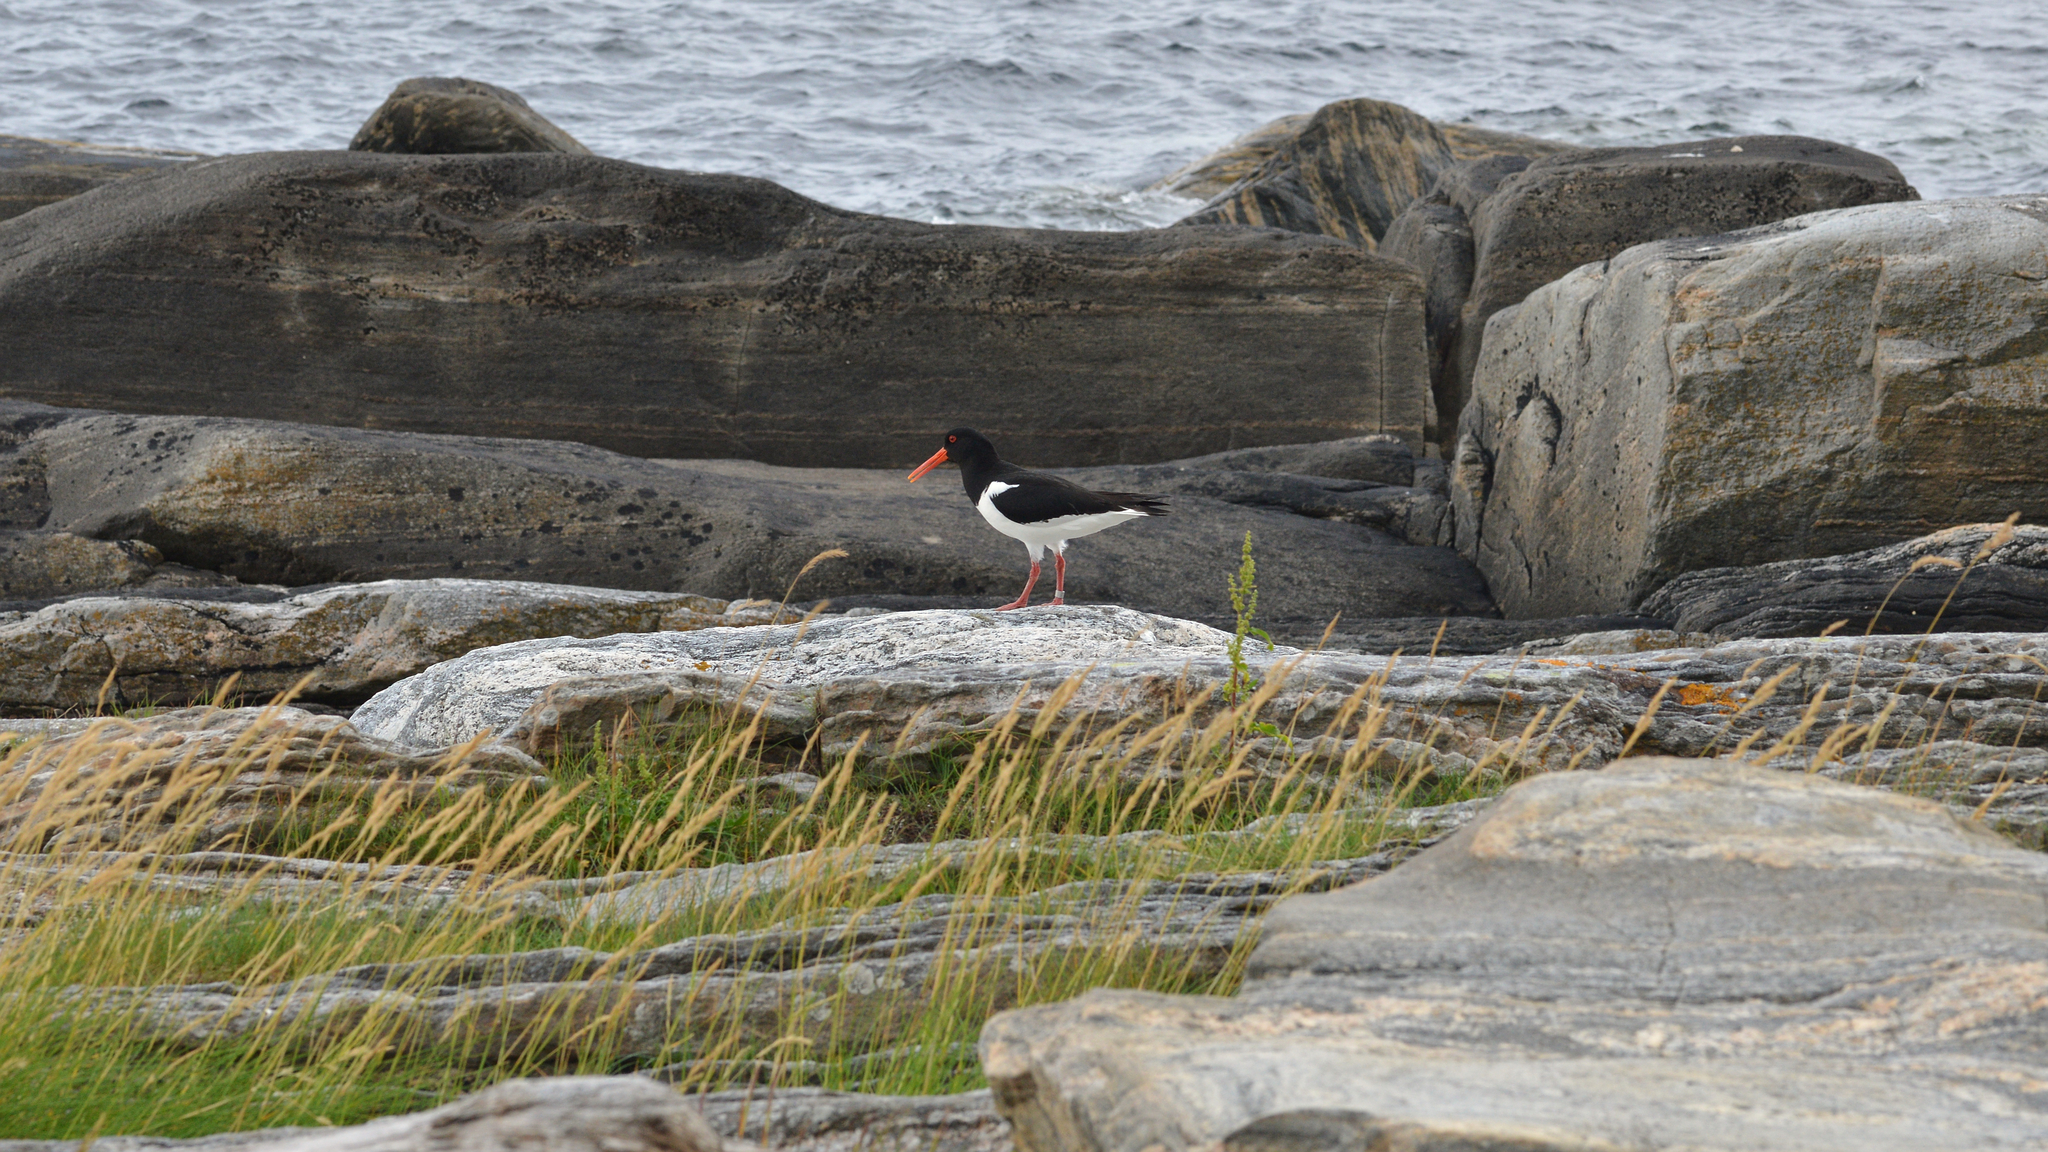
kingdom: Animalia
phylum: Chordata
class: Aves
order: Charadriiformes
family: Haematopodidae
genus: Haematopus
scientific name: Haematopus ostralegus
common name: Eurasian oystercatcher
